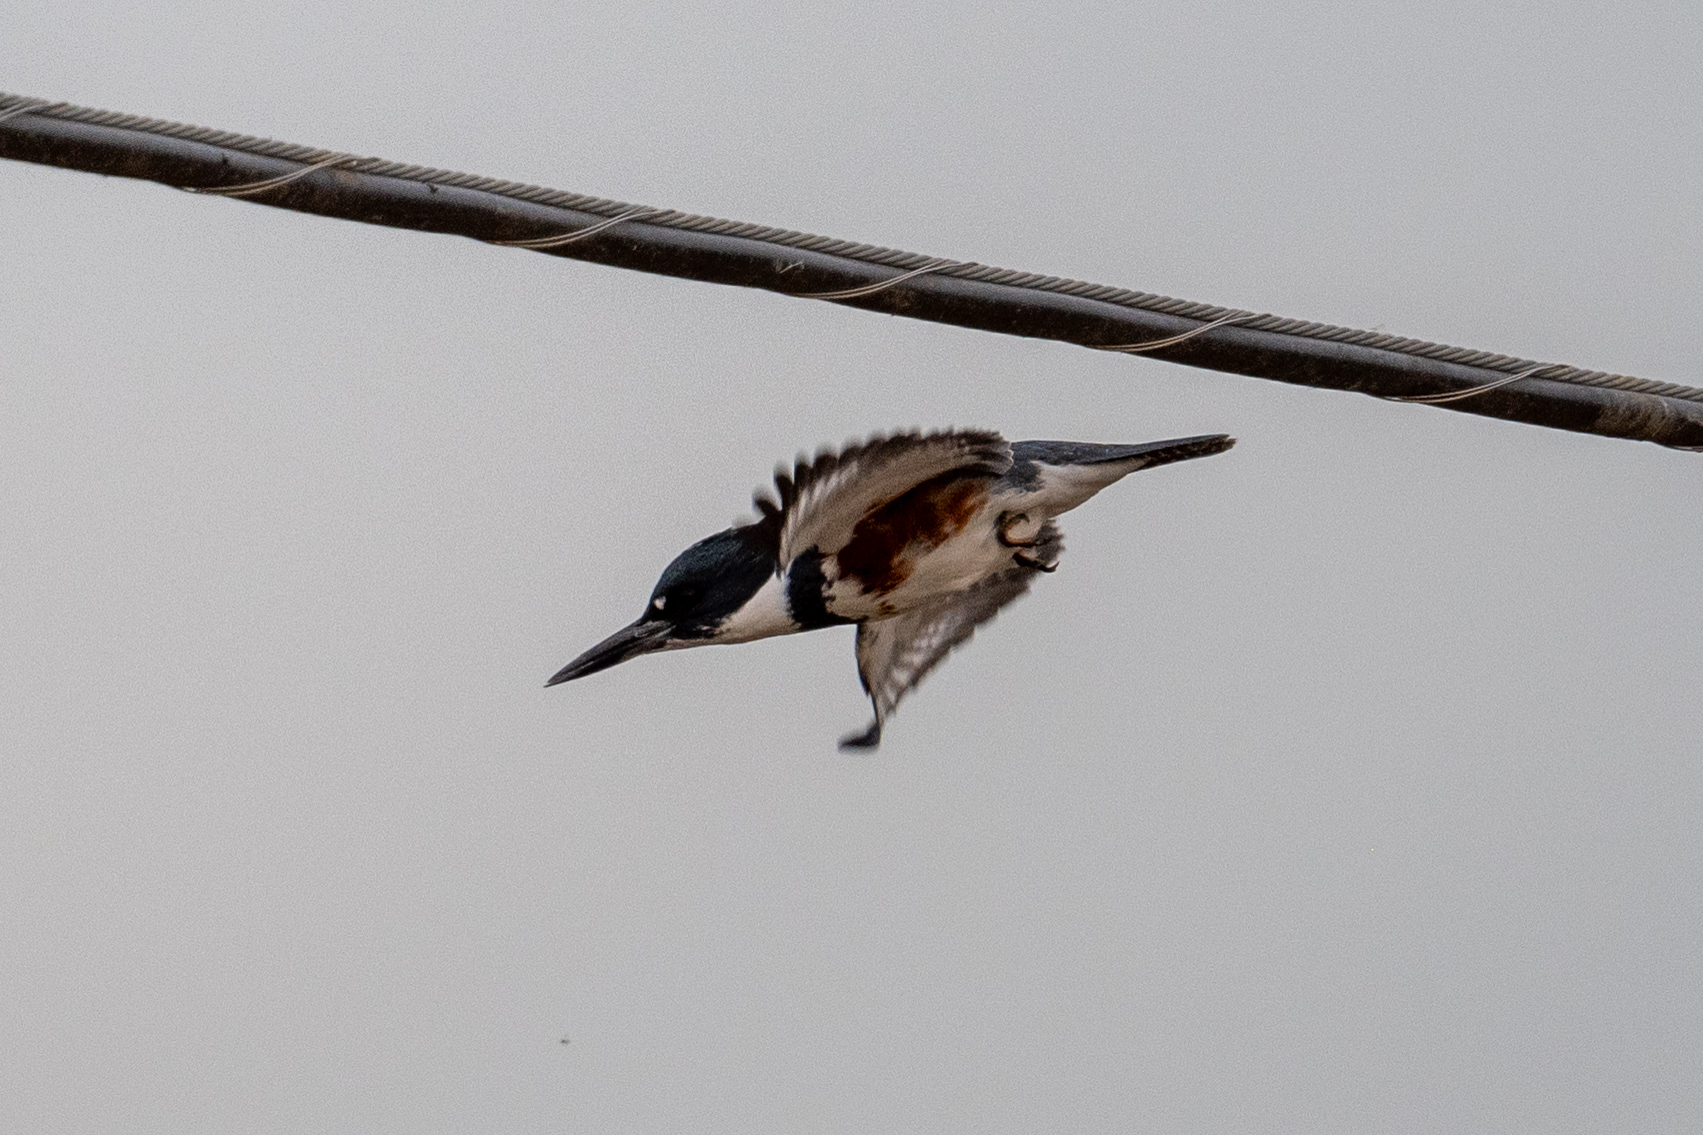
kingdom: Animalia
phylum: Chordata
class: Aves
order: Coraciiformes
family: Alcedinidae
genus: Megaceryle
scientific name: Megaceryle alcyon
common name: Belted kingfisher
